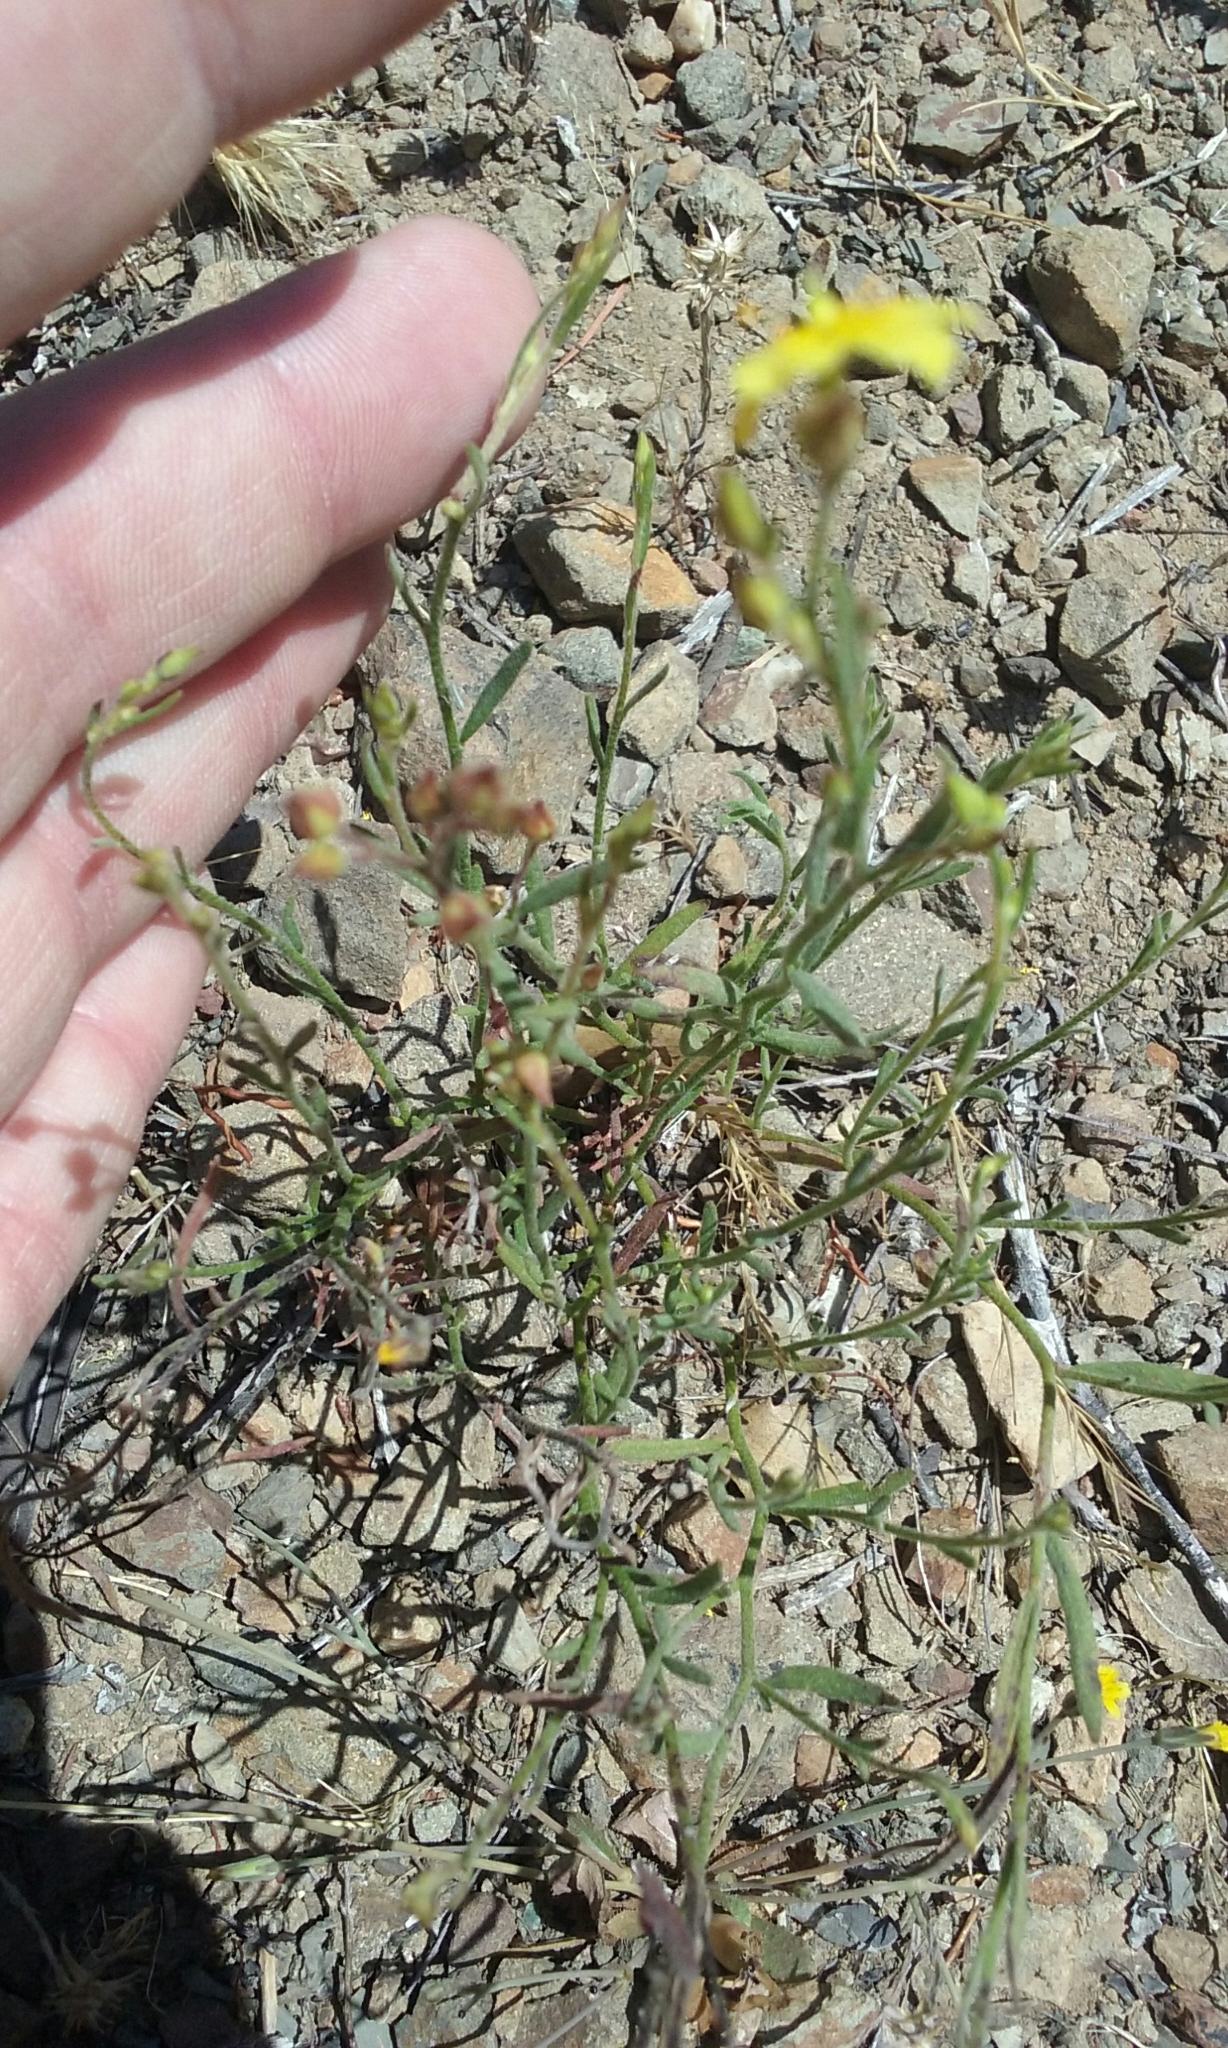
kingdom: Plantae
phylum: Tracheophyta
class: Magnoliopsida
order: Malvales
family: Cistaceae
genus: Crocanthemum
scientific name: Crocanthemum scoparium
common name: Broom-rose
